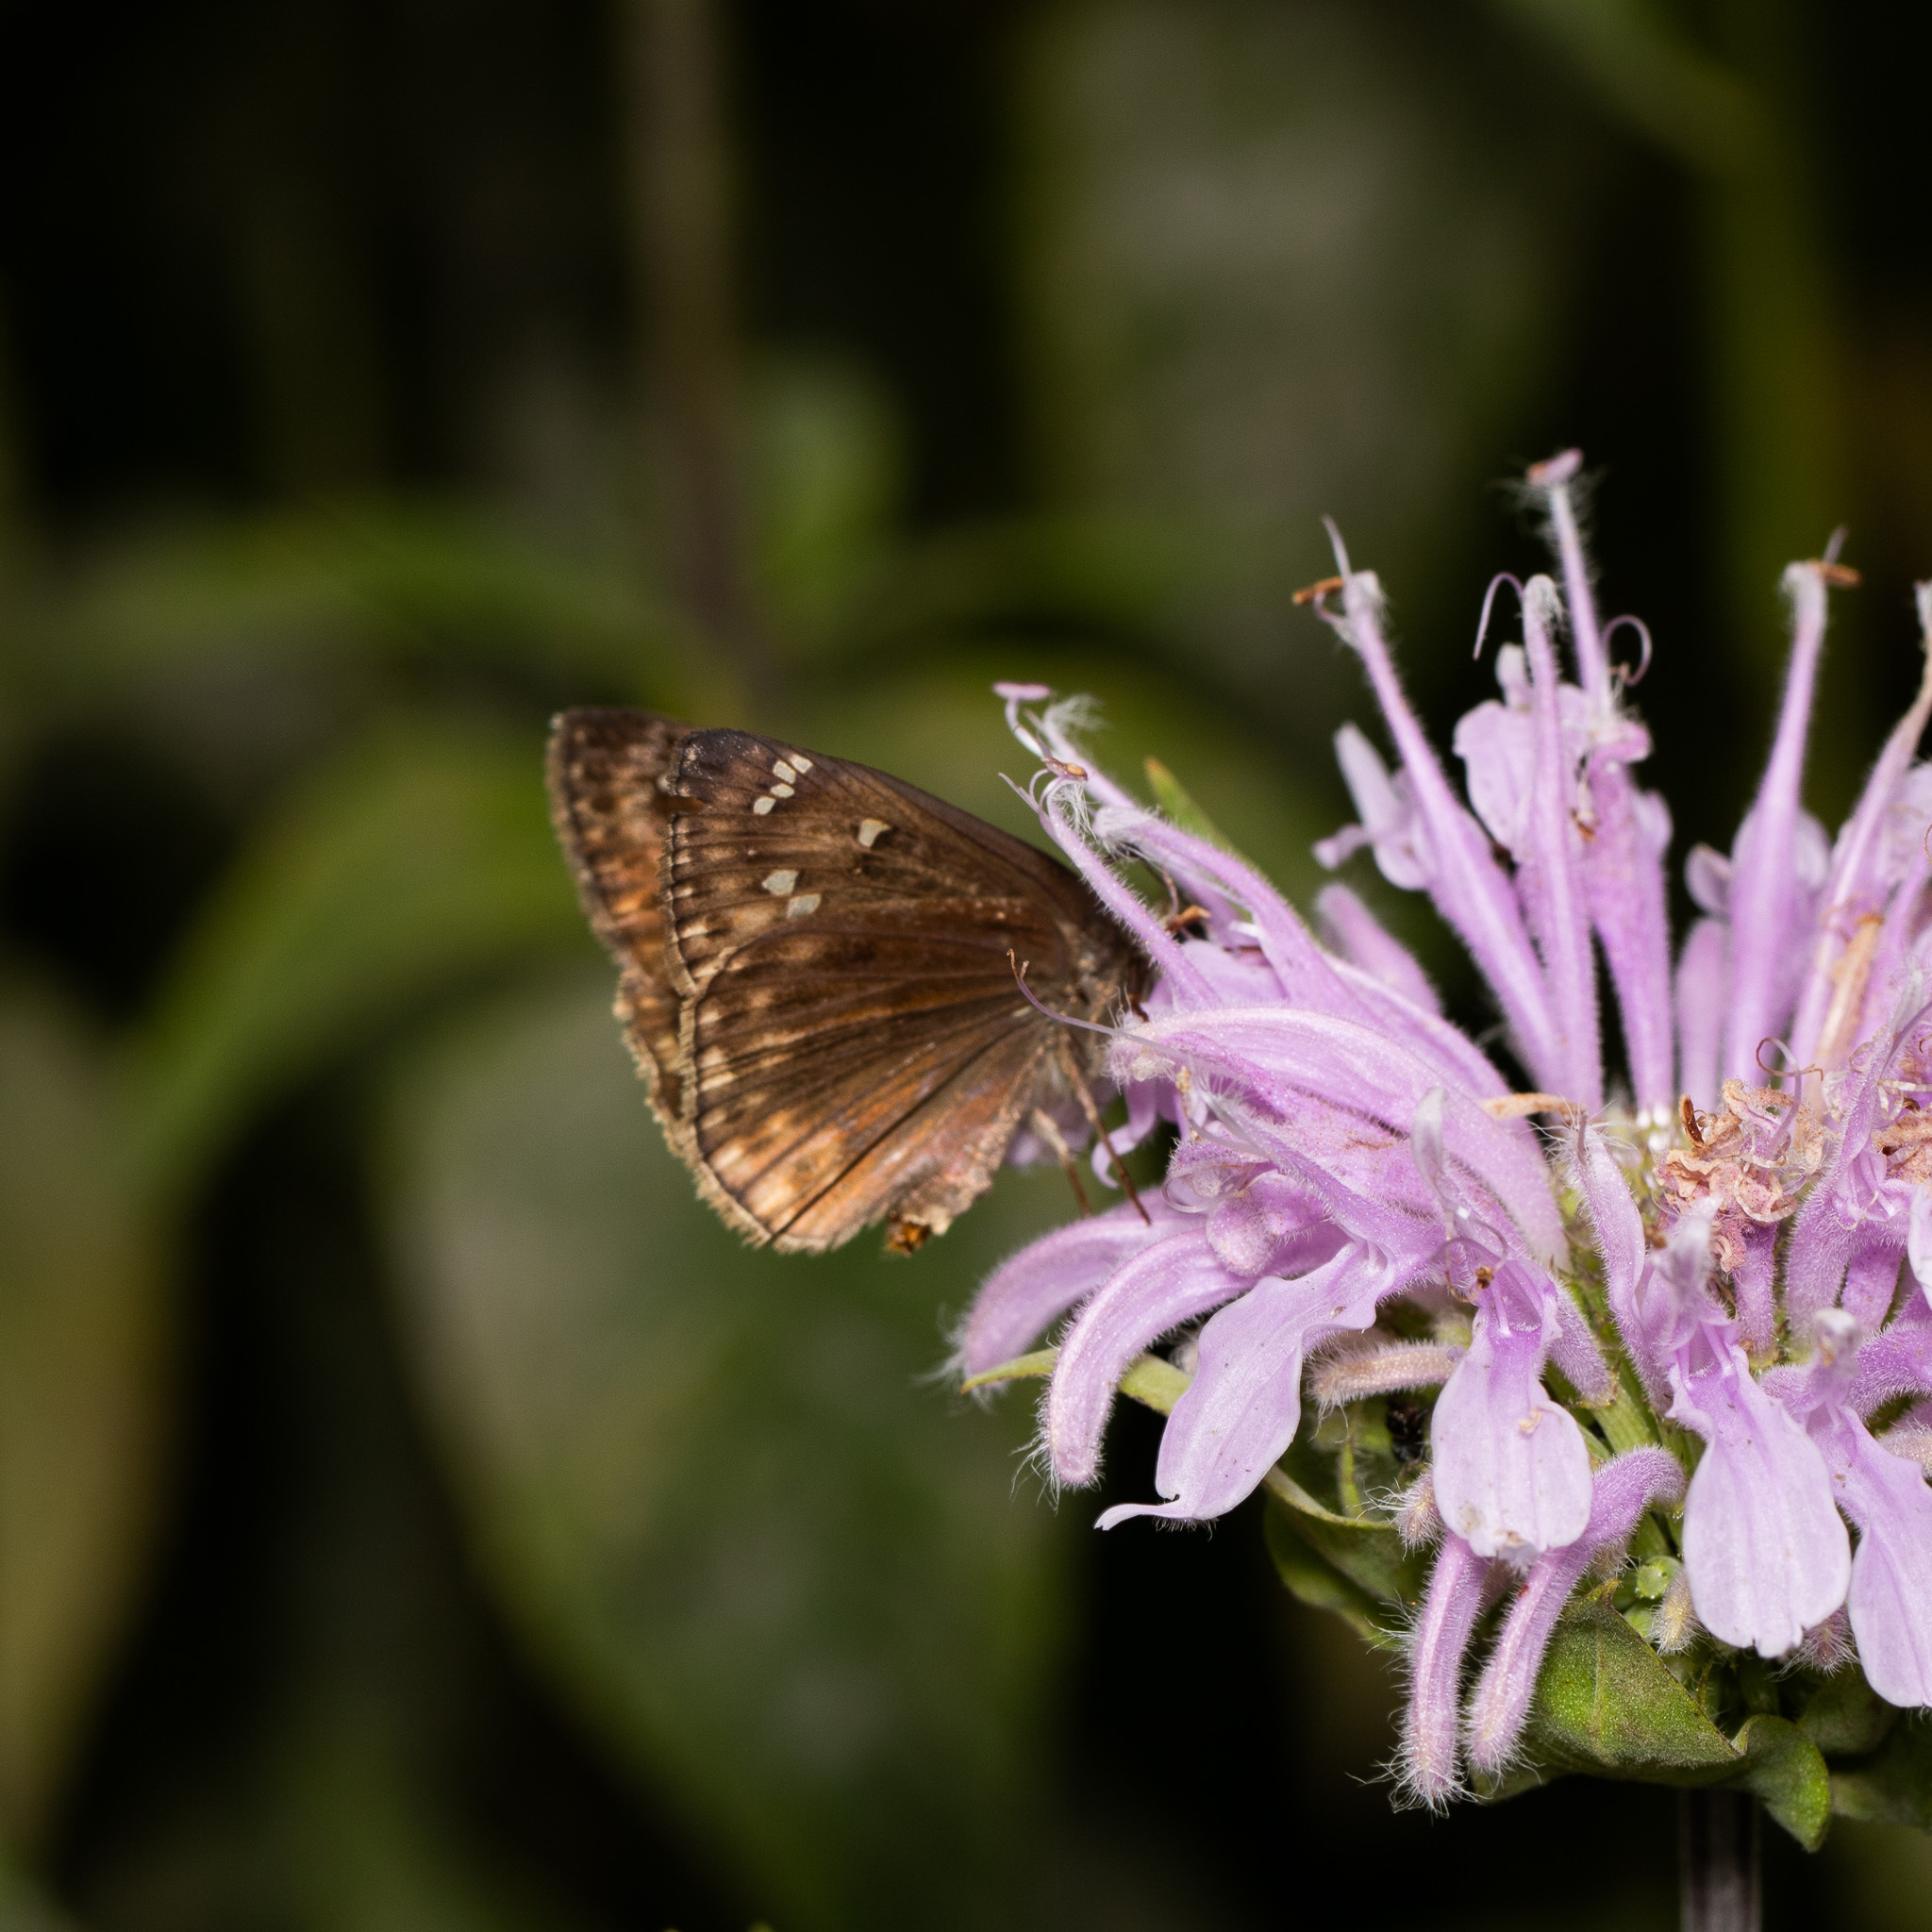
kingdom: Animalia
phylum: Arthropoda
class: Insecta
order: Lepidoptera
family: Hesperiidae
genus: Erynnis
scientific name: Erynnis horatius
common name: Horace's duskywing
